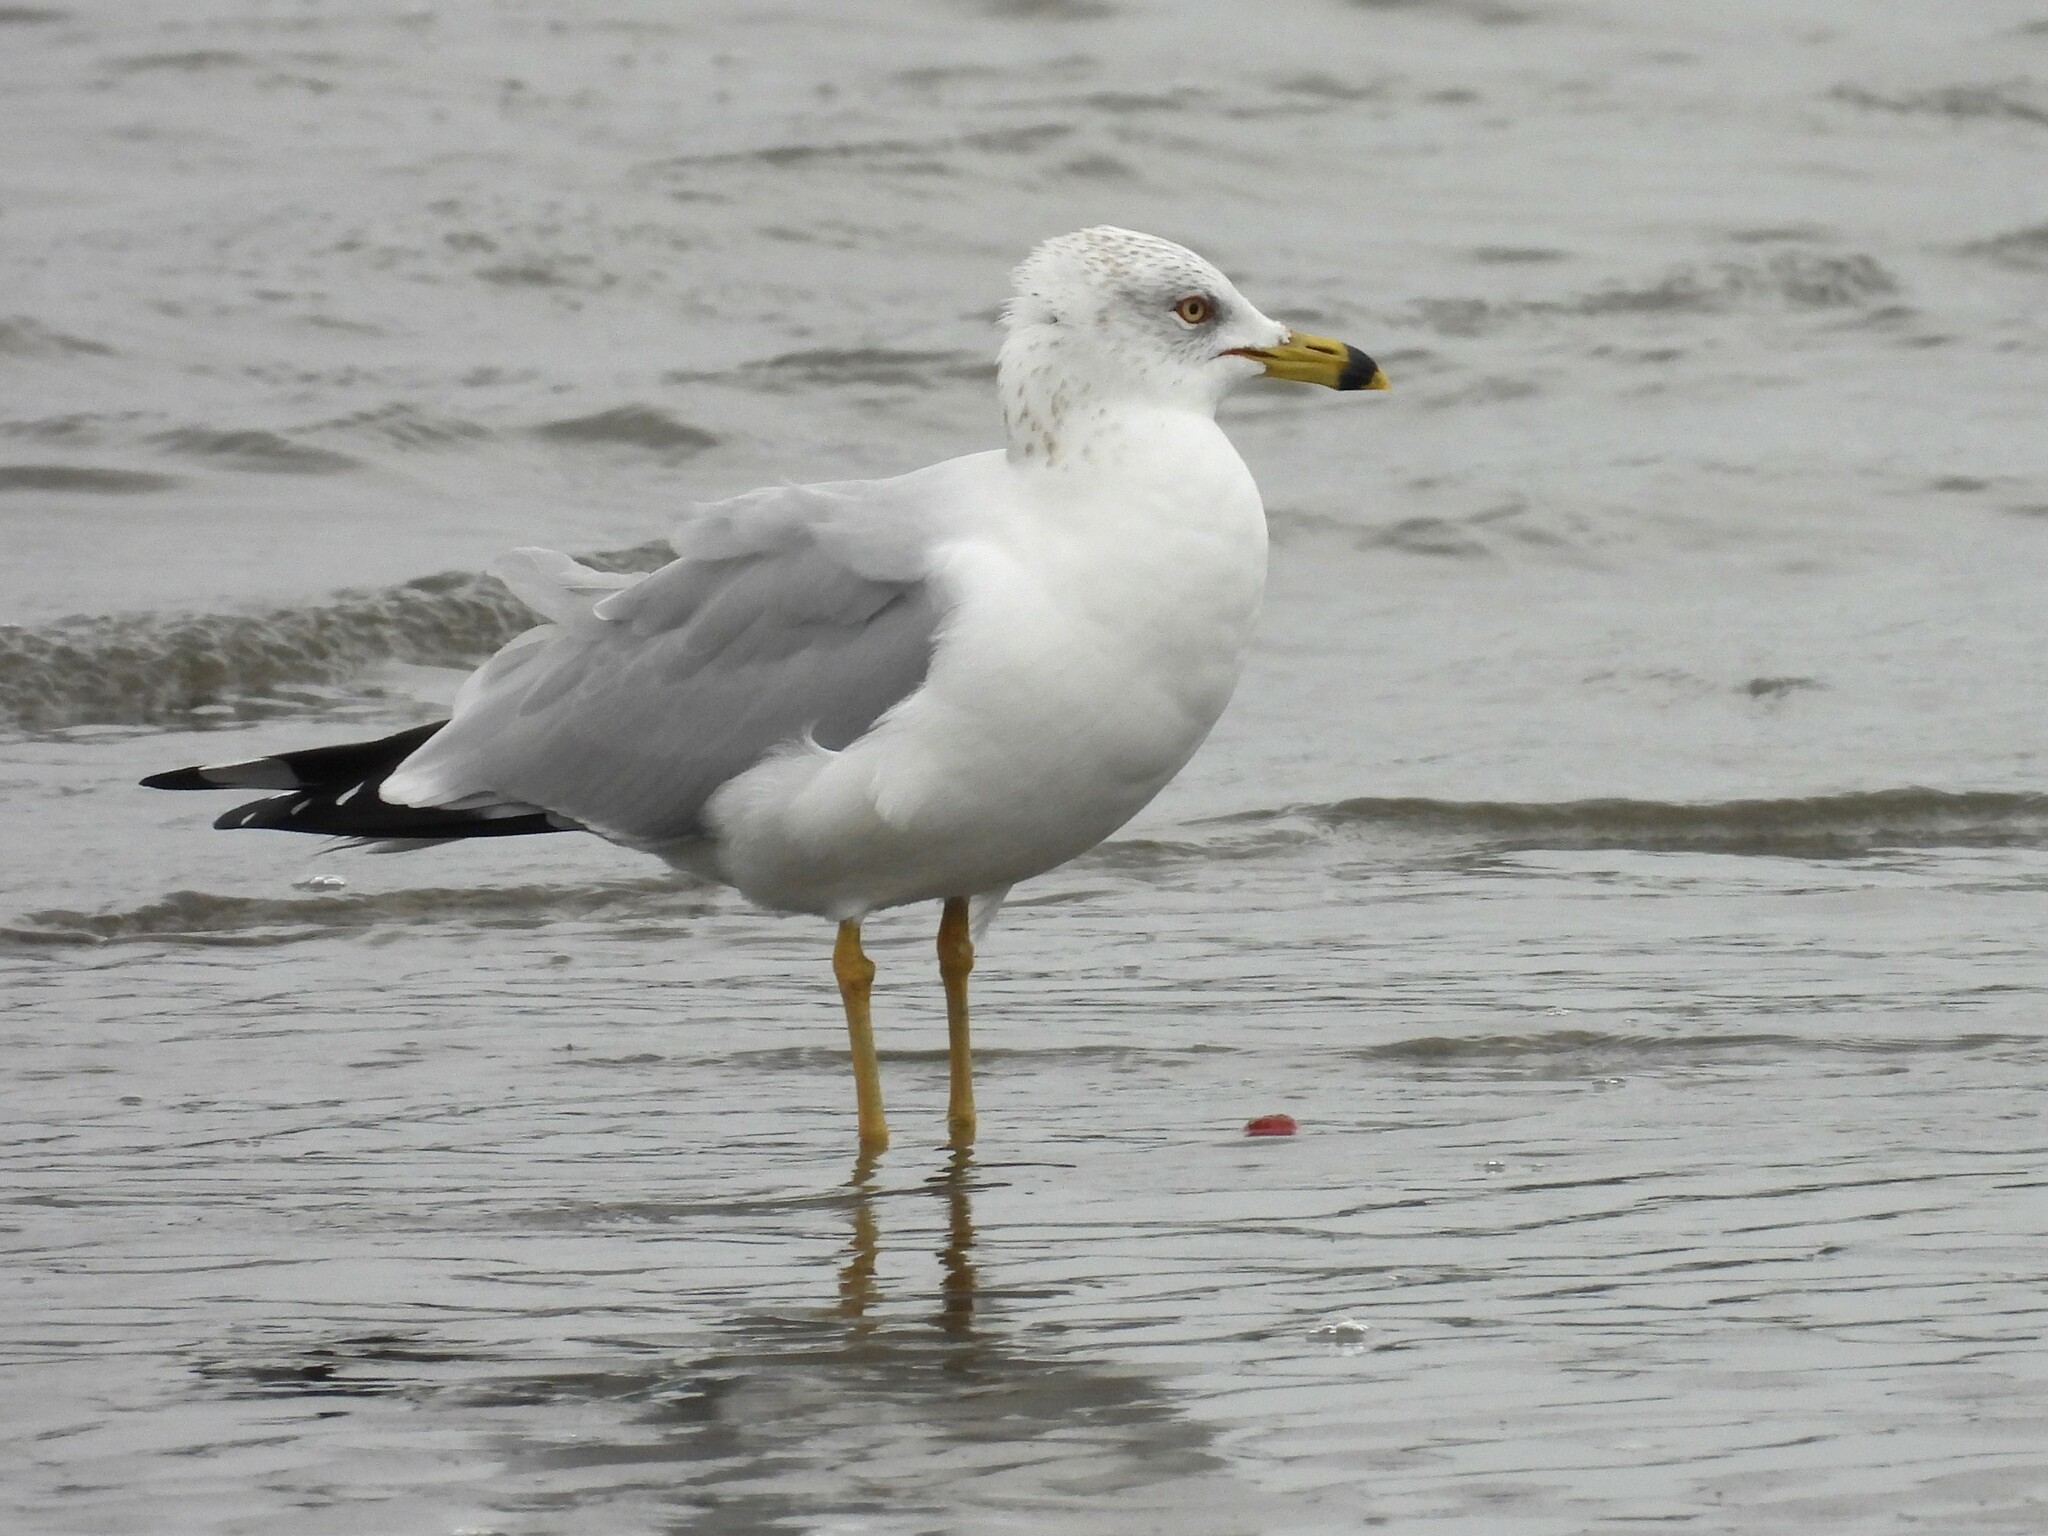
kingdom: Animalia
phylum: Chordata
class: Aves
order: Charadriiformes
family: Laridae
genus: Larus
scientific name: Larus delawarensis
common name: Ring-billed gull
